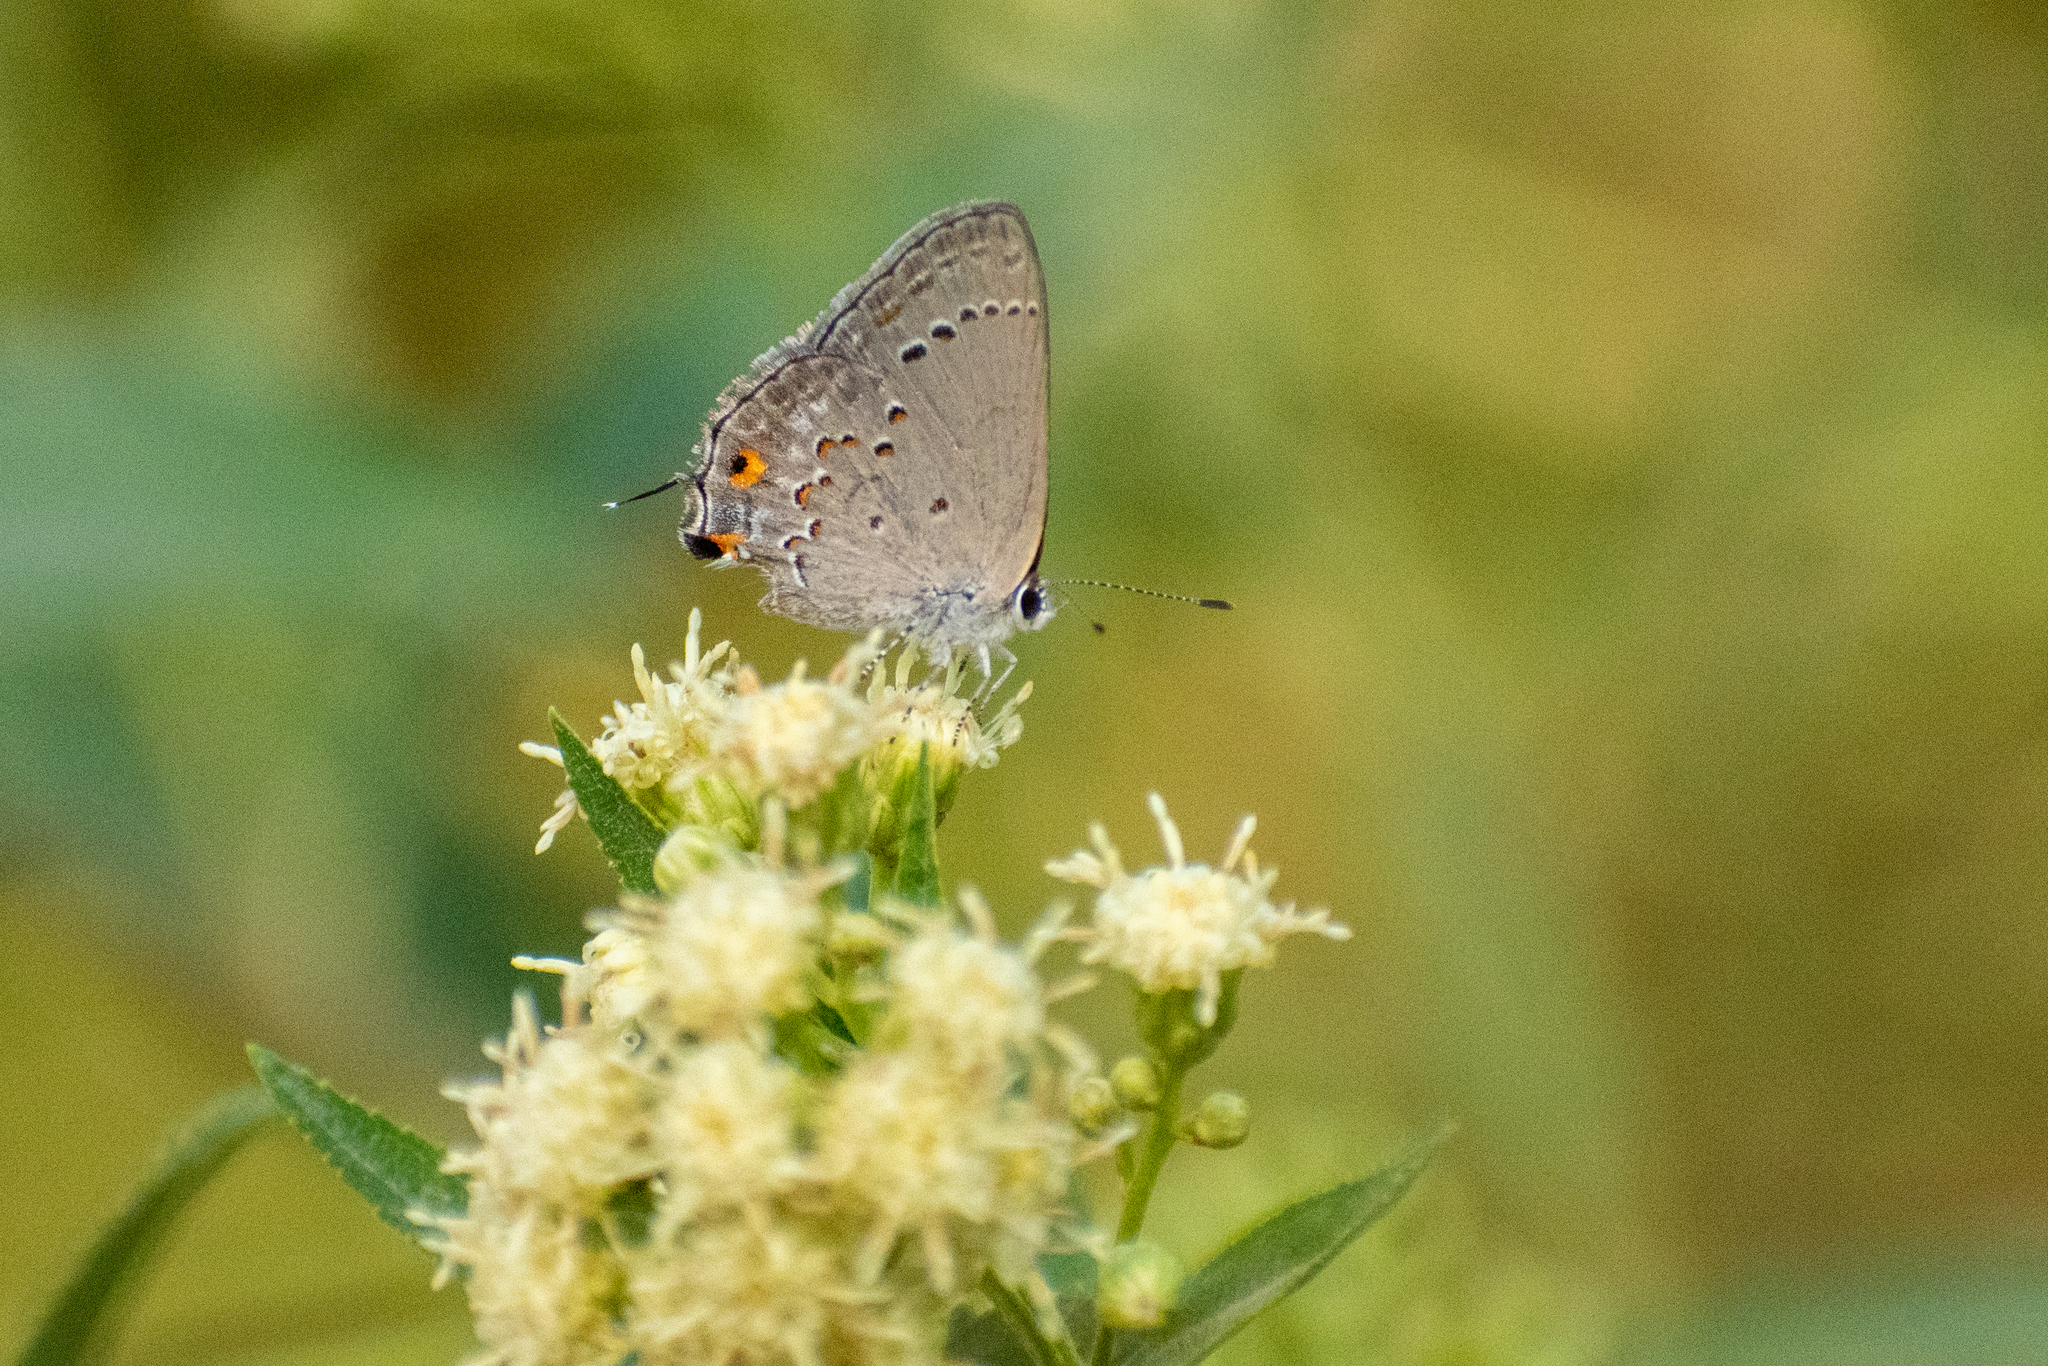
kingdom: Animalia
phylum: Arthropoda
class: Insecta
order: Lepidoptera
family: Lycaenidae
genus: Strymon
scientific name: Strymon eurytulus
